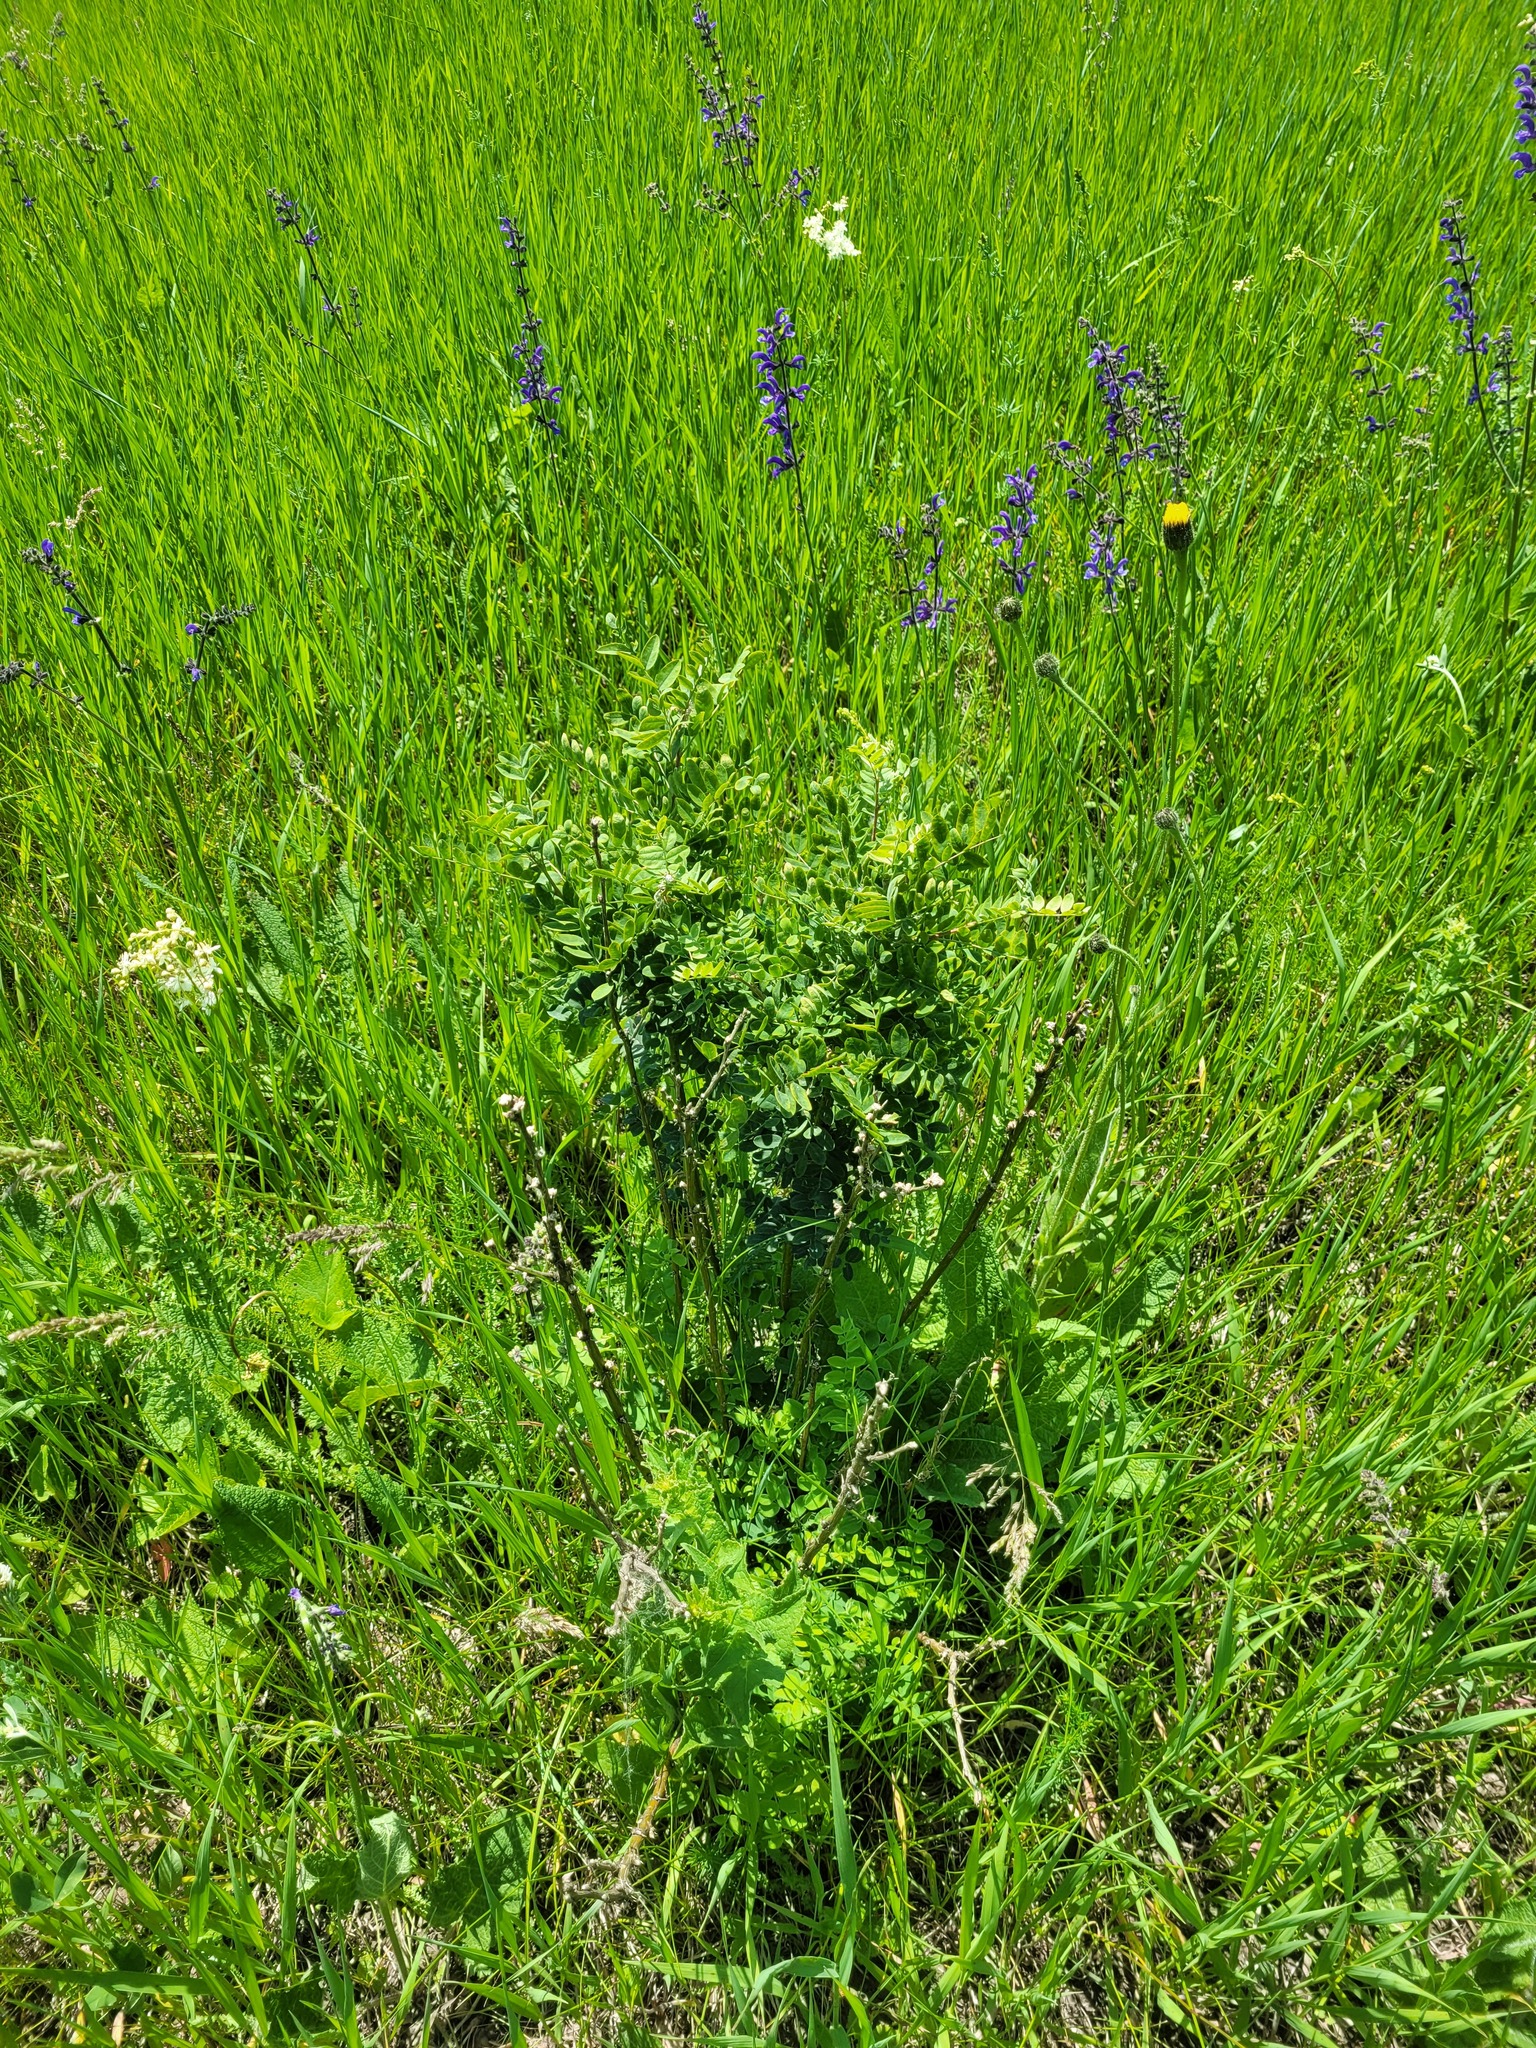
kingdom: Plantae
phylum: Tracheophyta
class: Magnoliopsida
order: Fabales
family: Fabaceae
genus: Caragana
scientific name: Caragana arborescens
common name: Siberian peashrub
